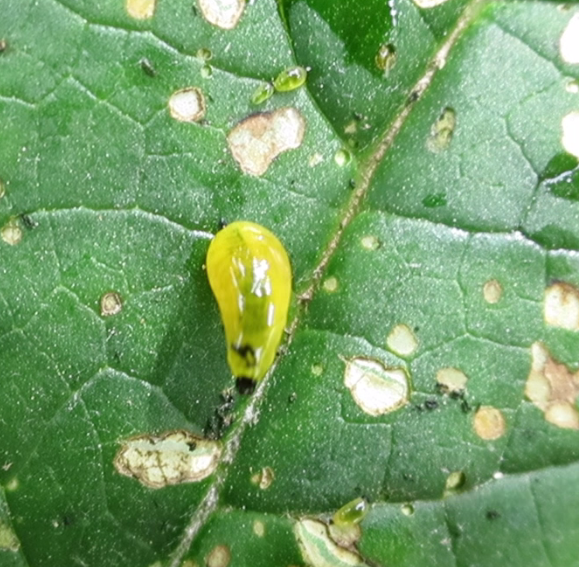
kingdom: Animalia
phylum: Arthropoda
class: Insecta
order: Coleoptera
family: Curculionidae
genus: Cleopus
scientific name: Cleopus japonicus
